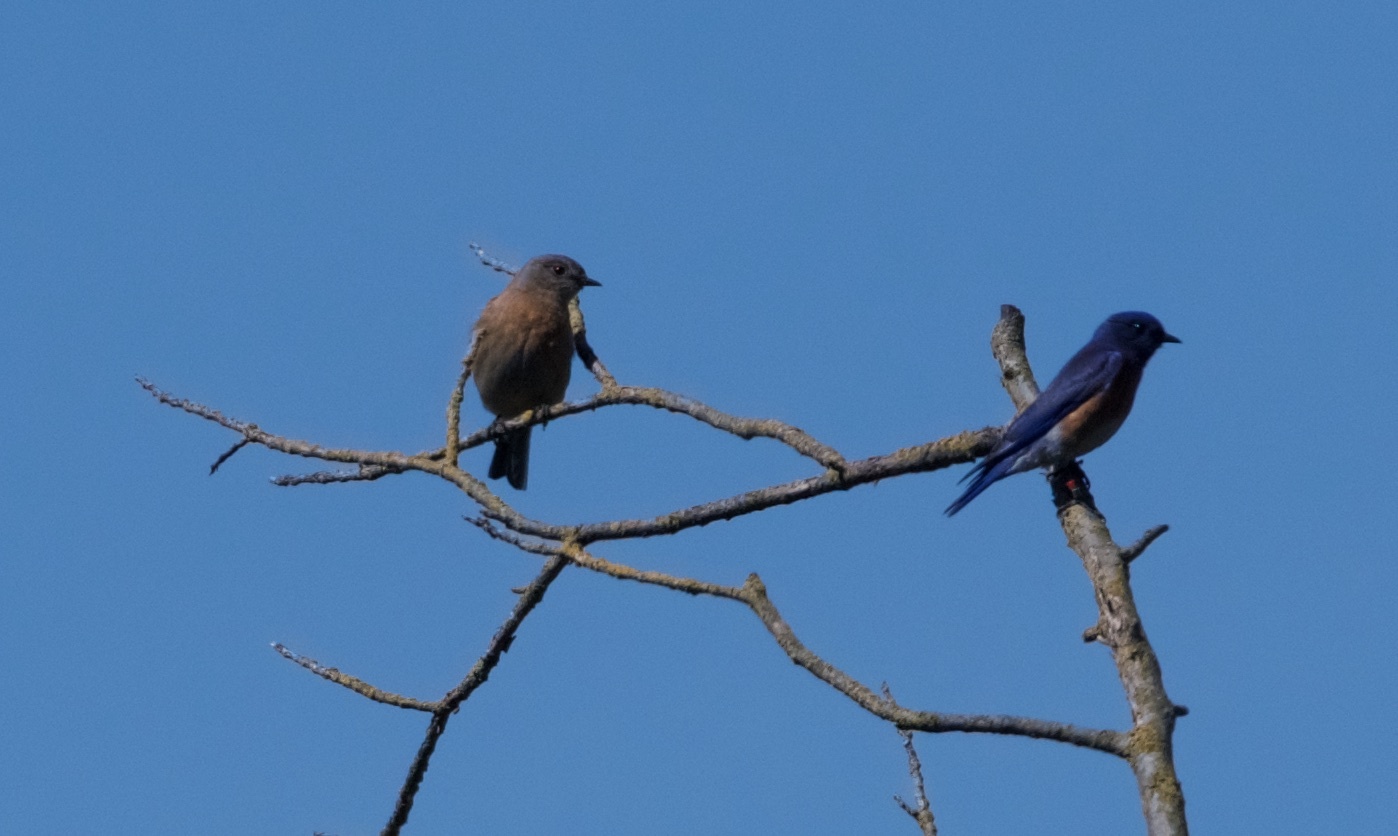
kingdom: Animalia
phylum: Chordata
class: Aves
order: Passeriformes
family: Turdidae
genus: Sialia
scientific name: Sialia mexicana
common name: Western bluebird
